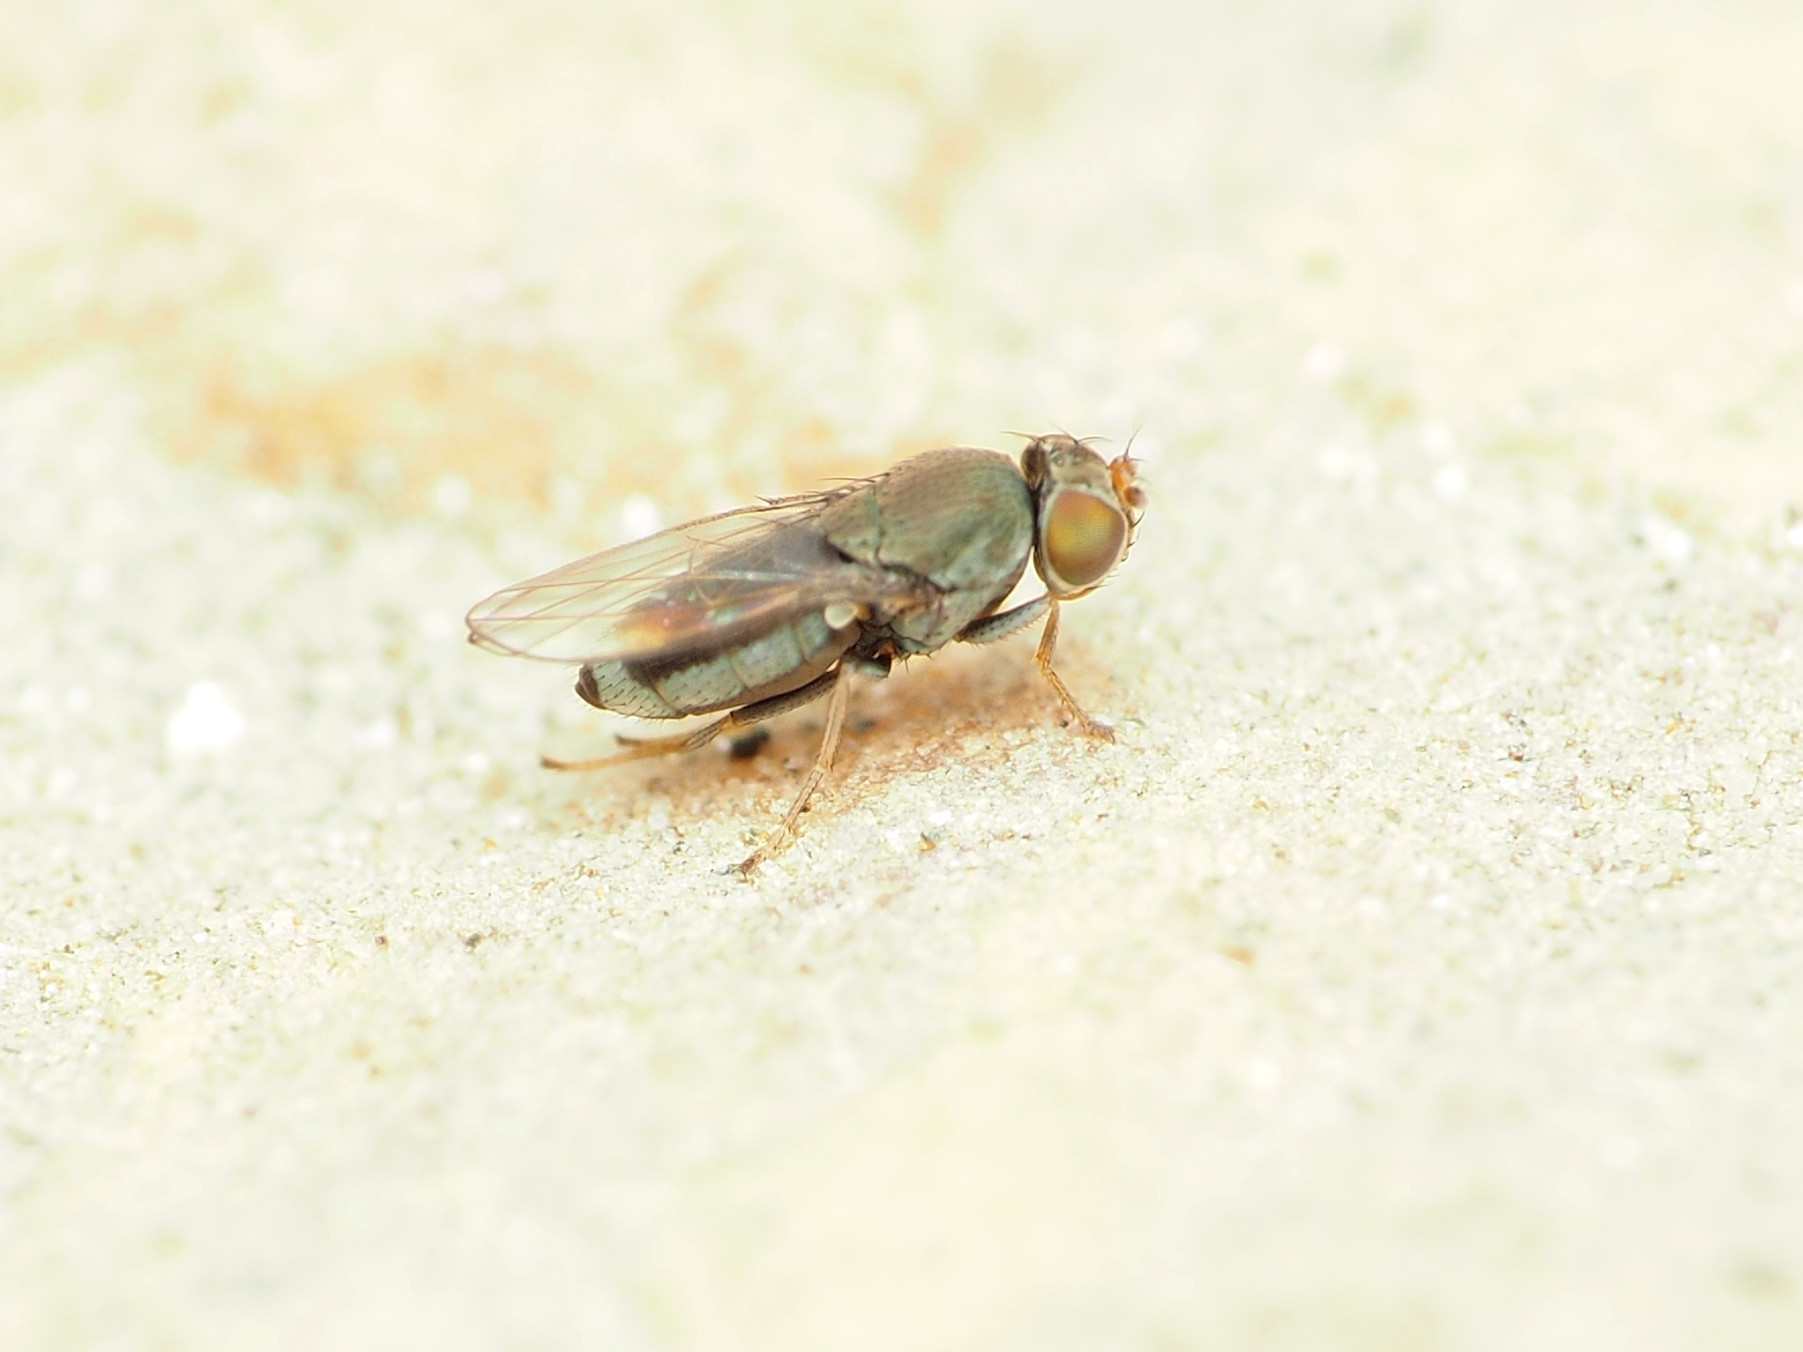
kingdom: Animalia
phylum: Arthropoda
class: Insecta
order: Diptera
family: Ephydridae
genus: Aquachasma
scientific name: Aquachasma leucoproctum
